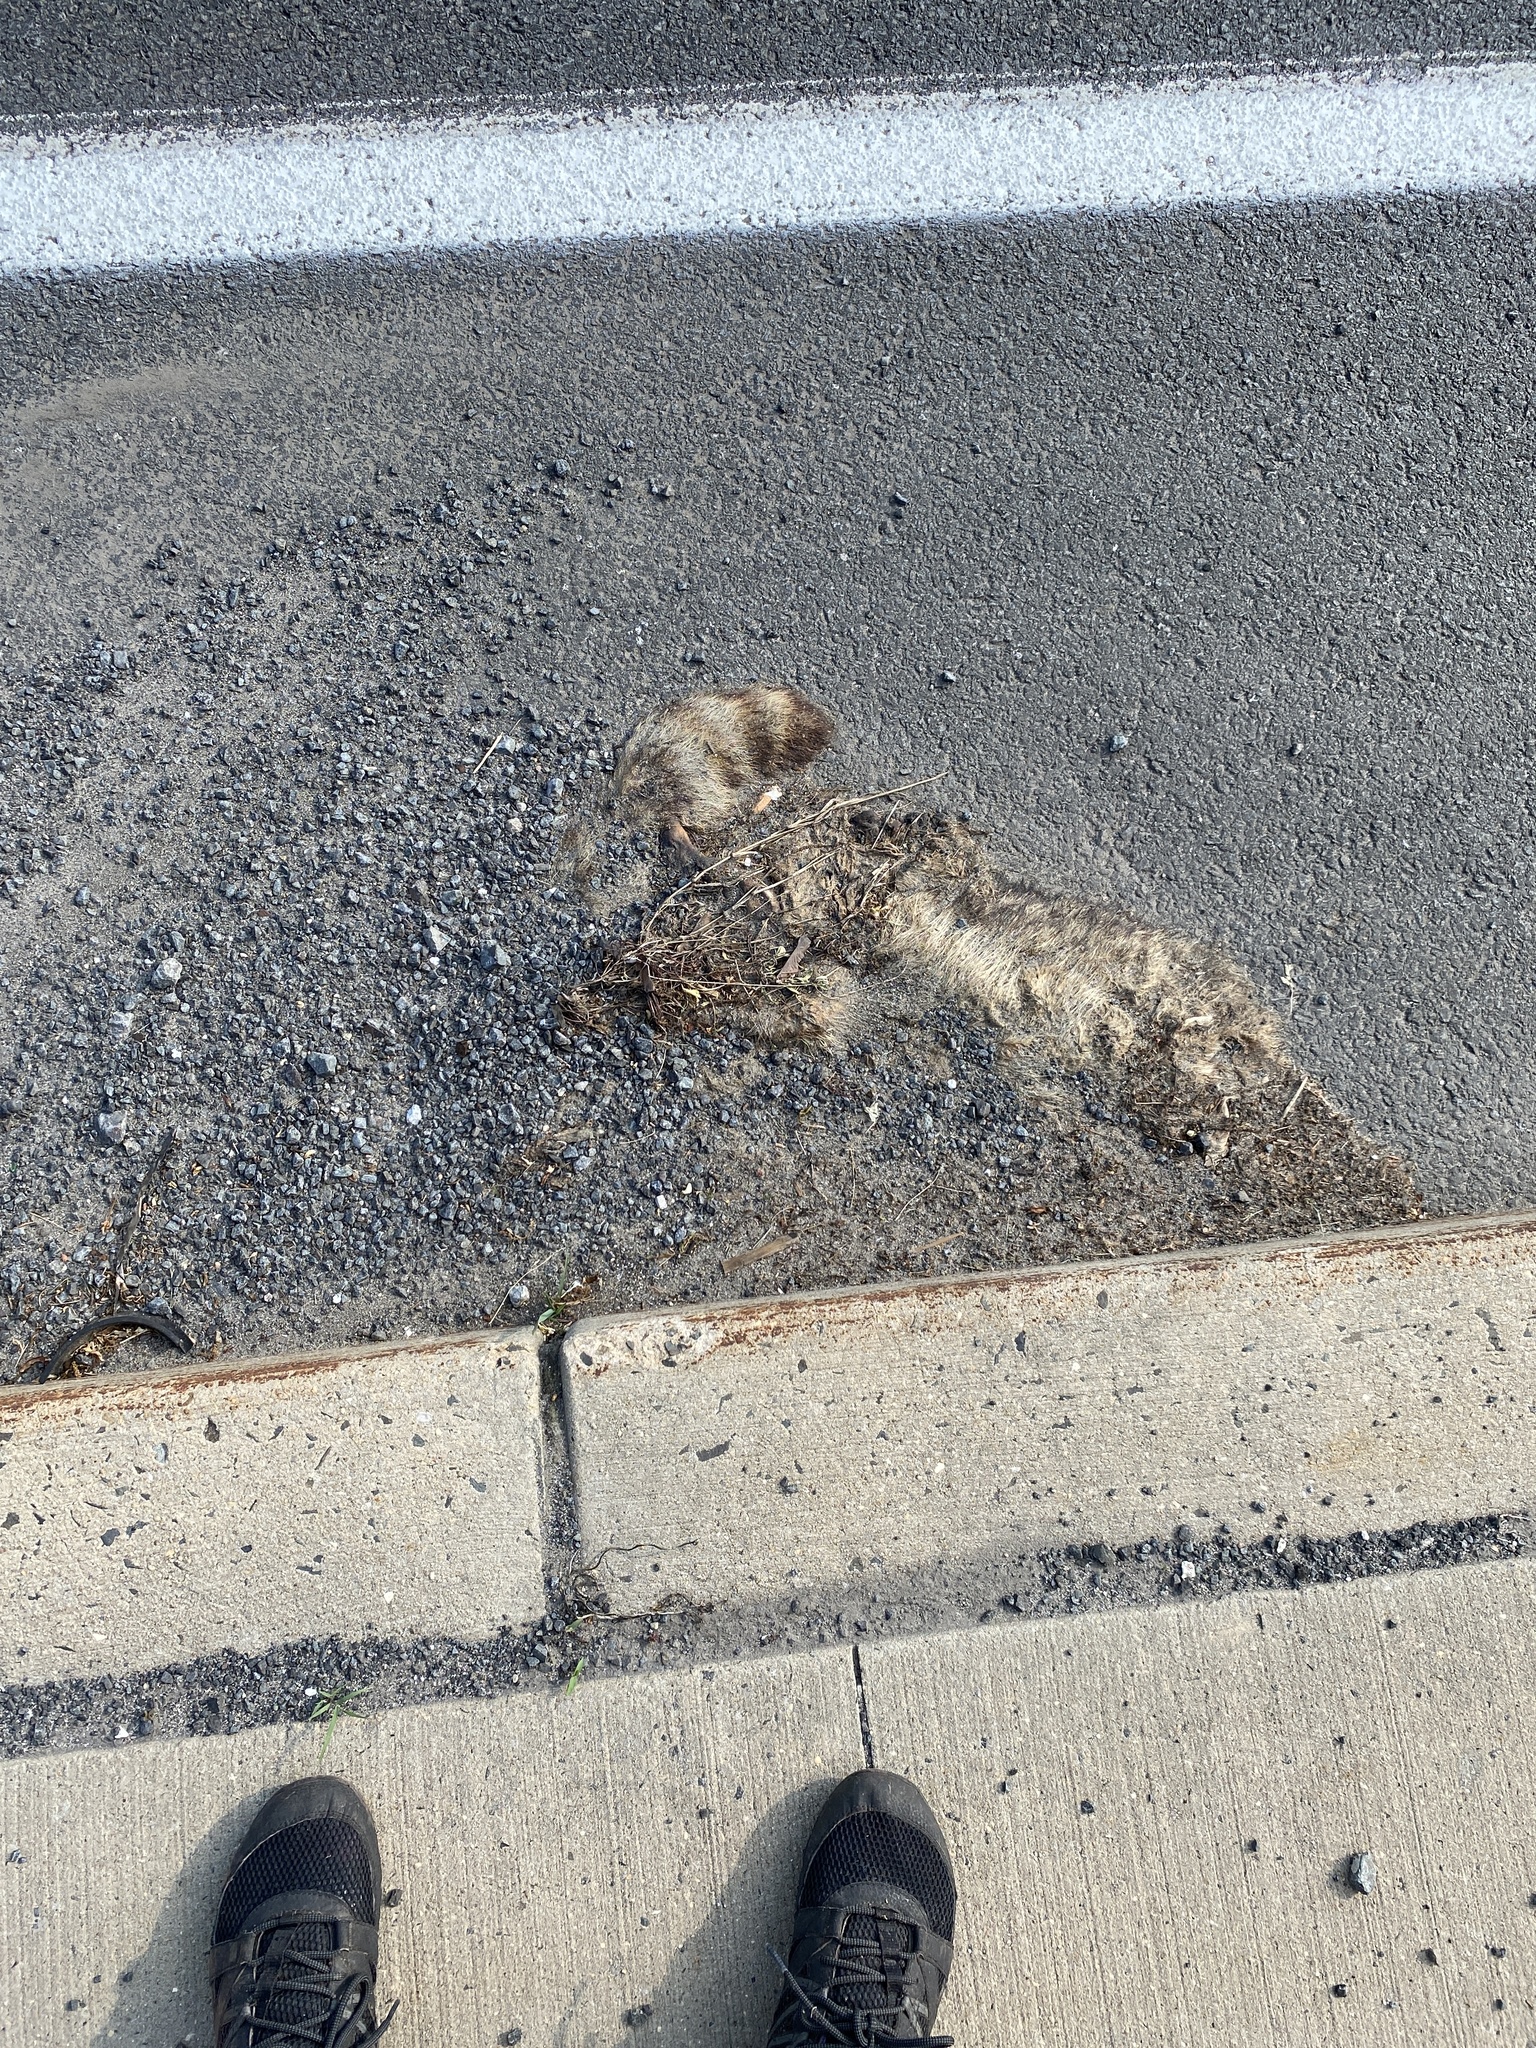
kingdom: Animalia
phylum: Chordata
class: Mammalia
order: Carnivora
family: Procyonidae
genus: Procyon
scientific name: Procyon lotor
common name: Raccoon
